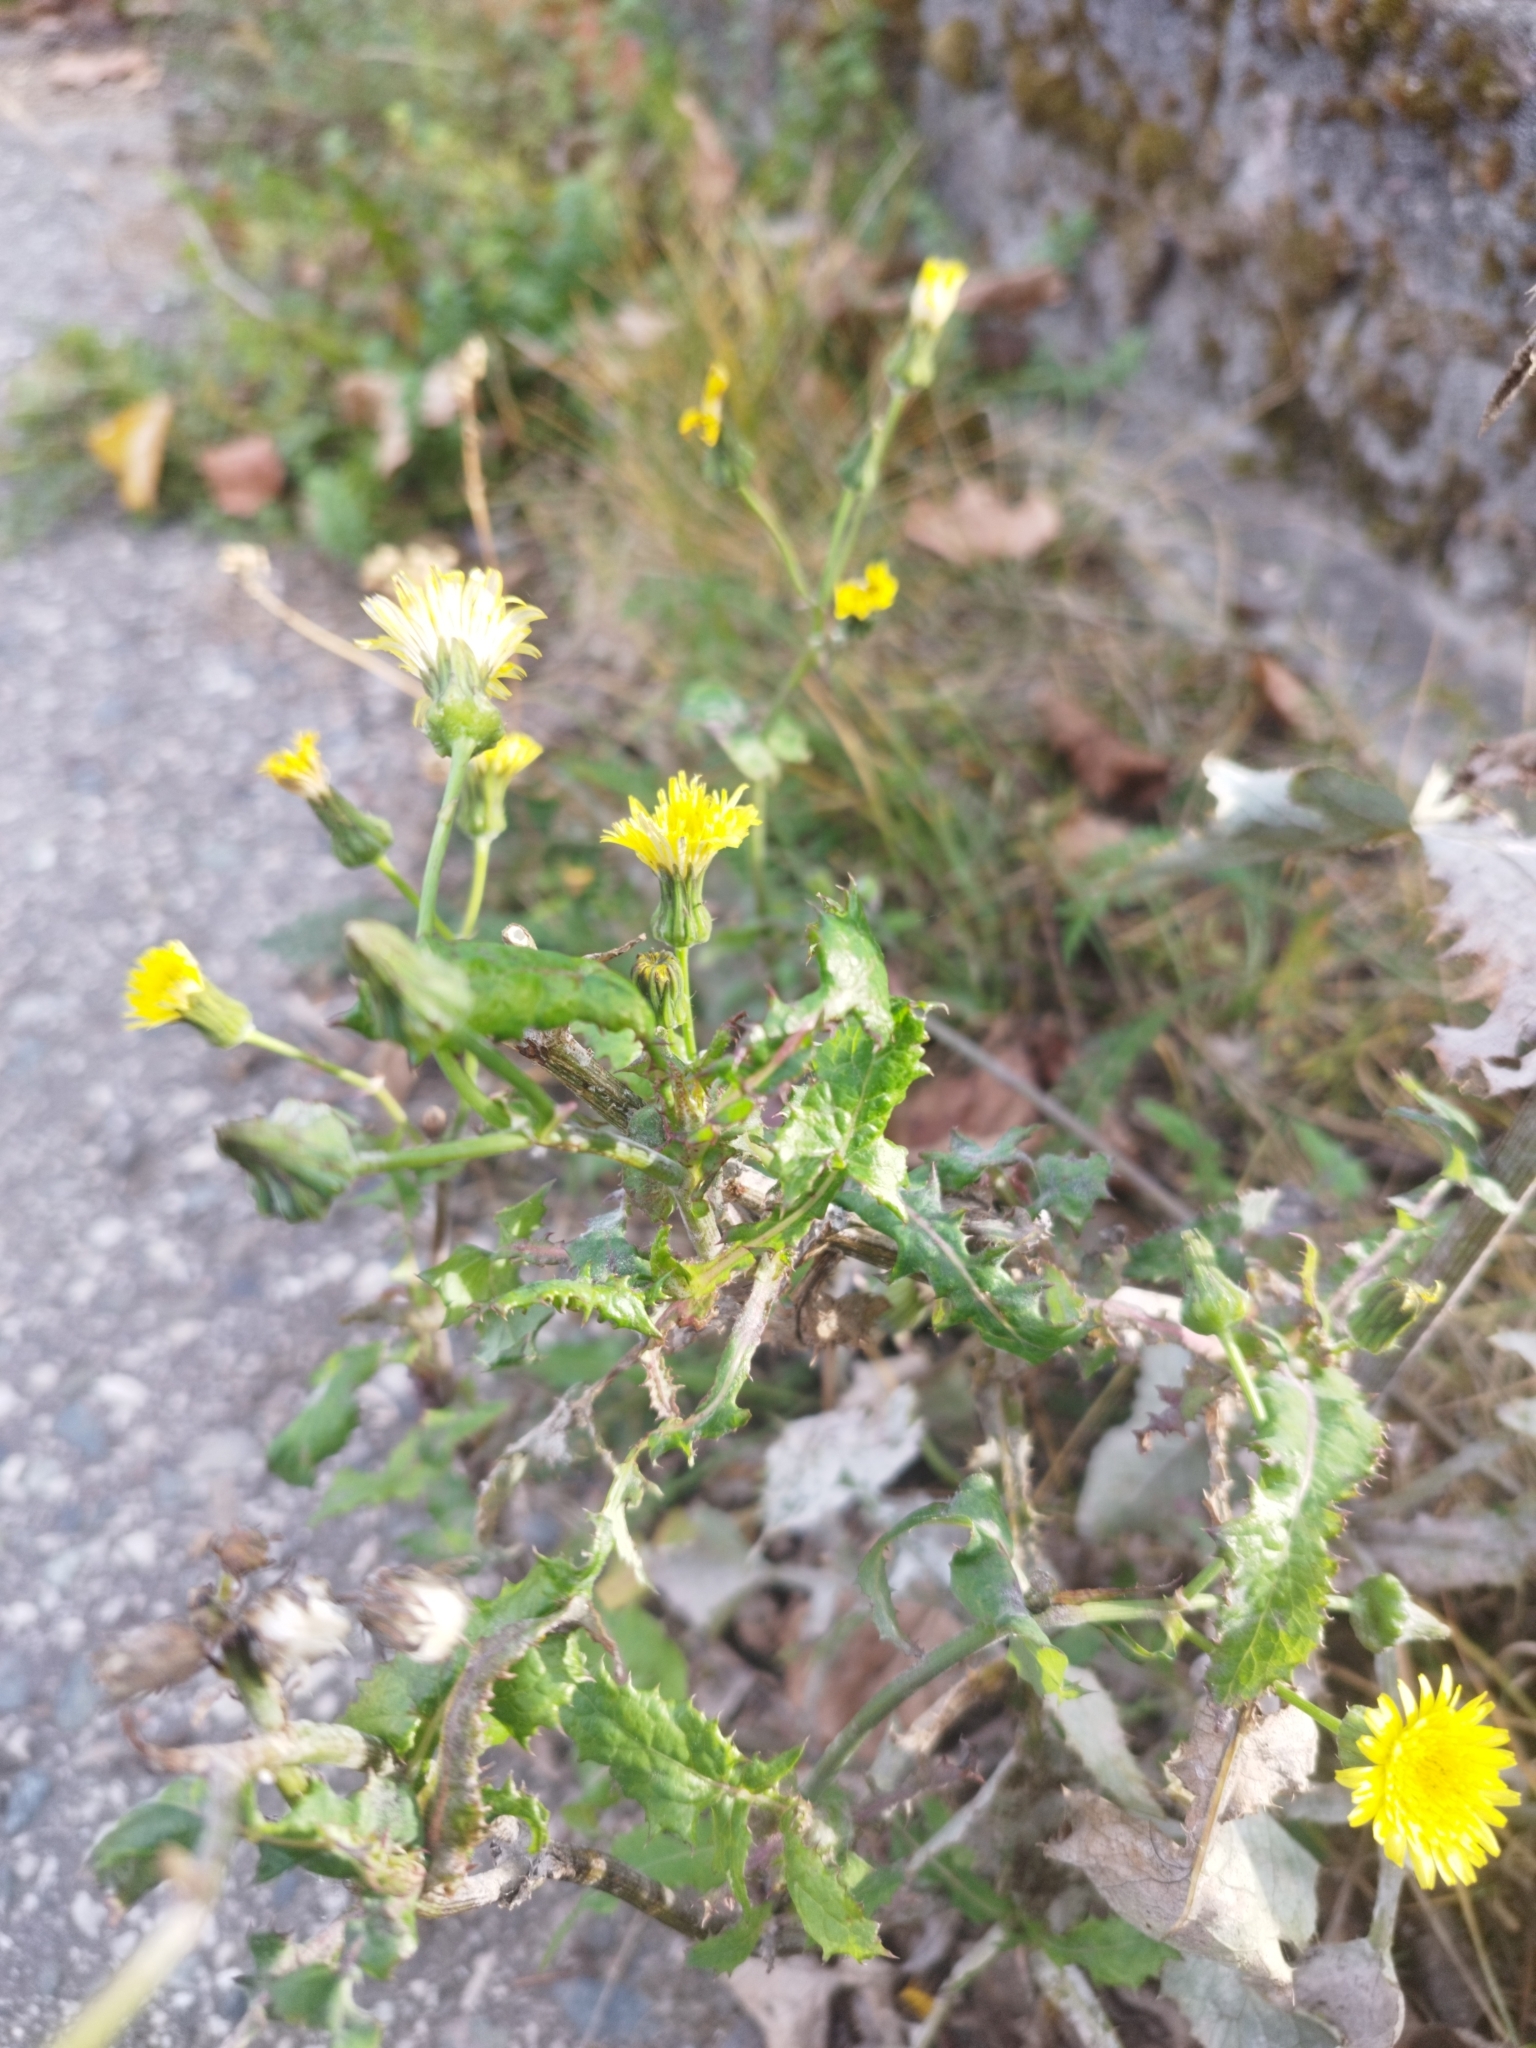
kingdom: Plantae
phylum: Tracheophyta
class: Magnoliopsida
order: Asterales
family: Asteraceae
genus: Sonchus
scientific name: Sonchus oleraceus
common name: Common sowthistle
